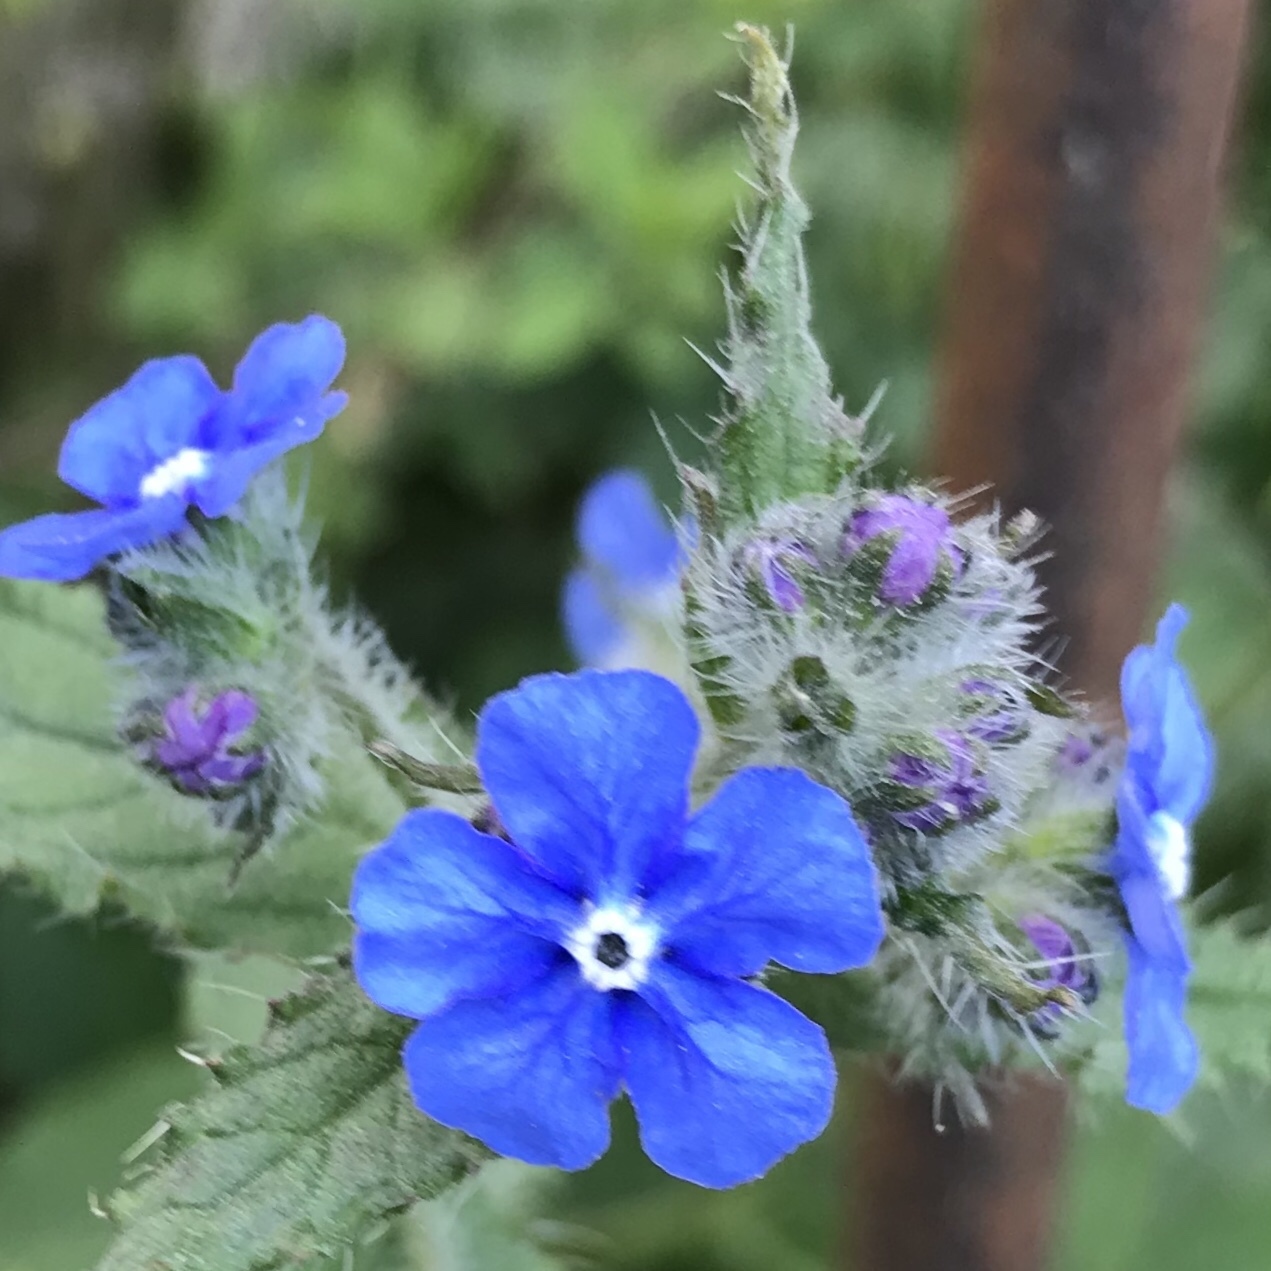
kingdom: Plantae
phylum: Tracheophyta
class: Magnoliopsida
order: Boraginales
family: Boraginaceae
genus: Pentaglottis
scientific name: Pentaglottis sempervirens
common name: Green alkanet
